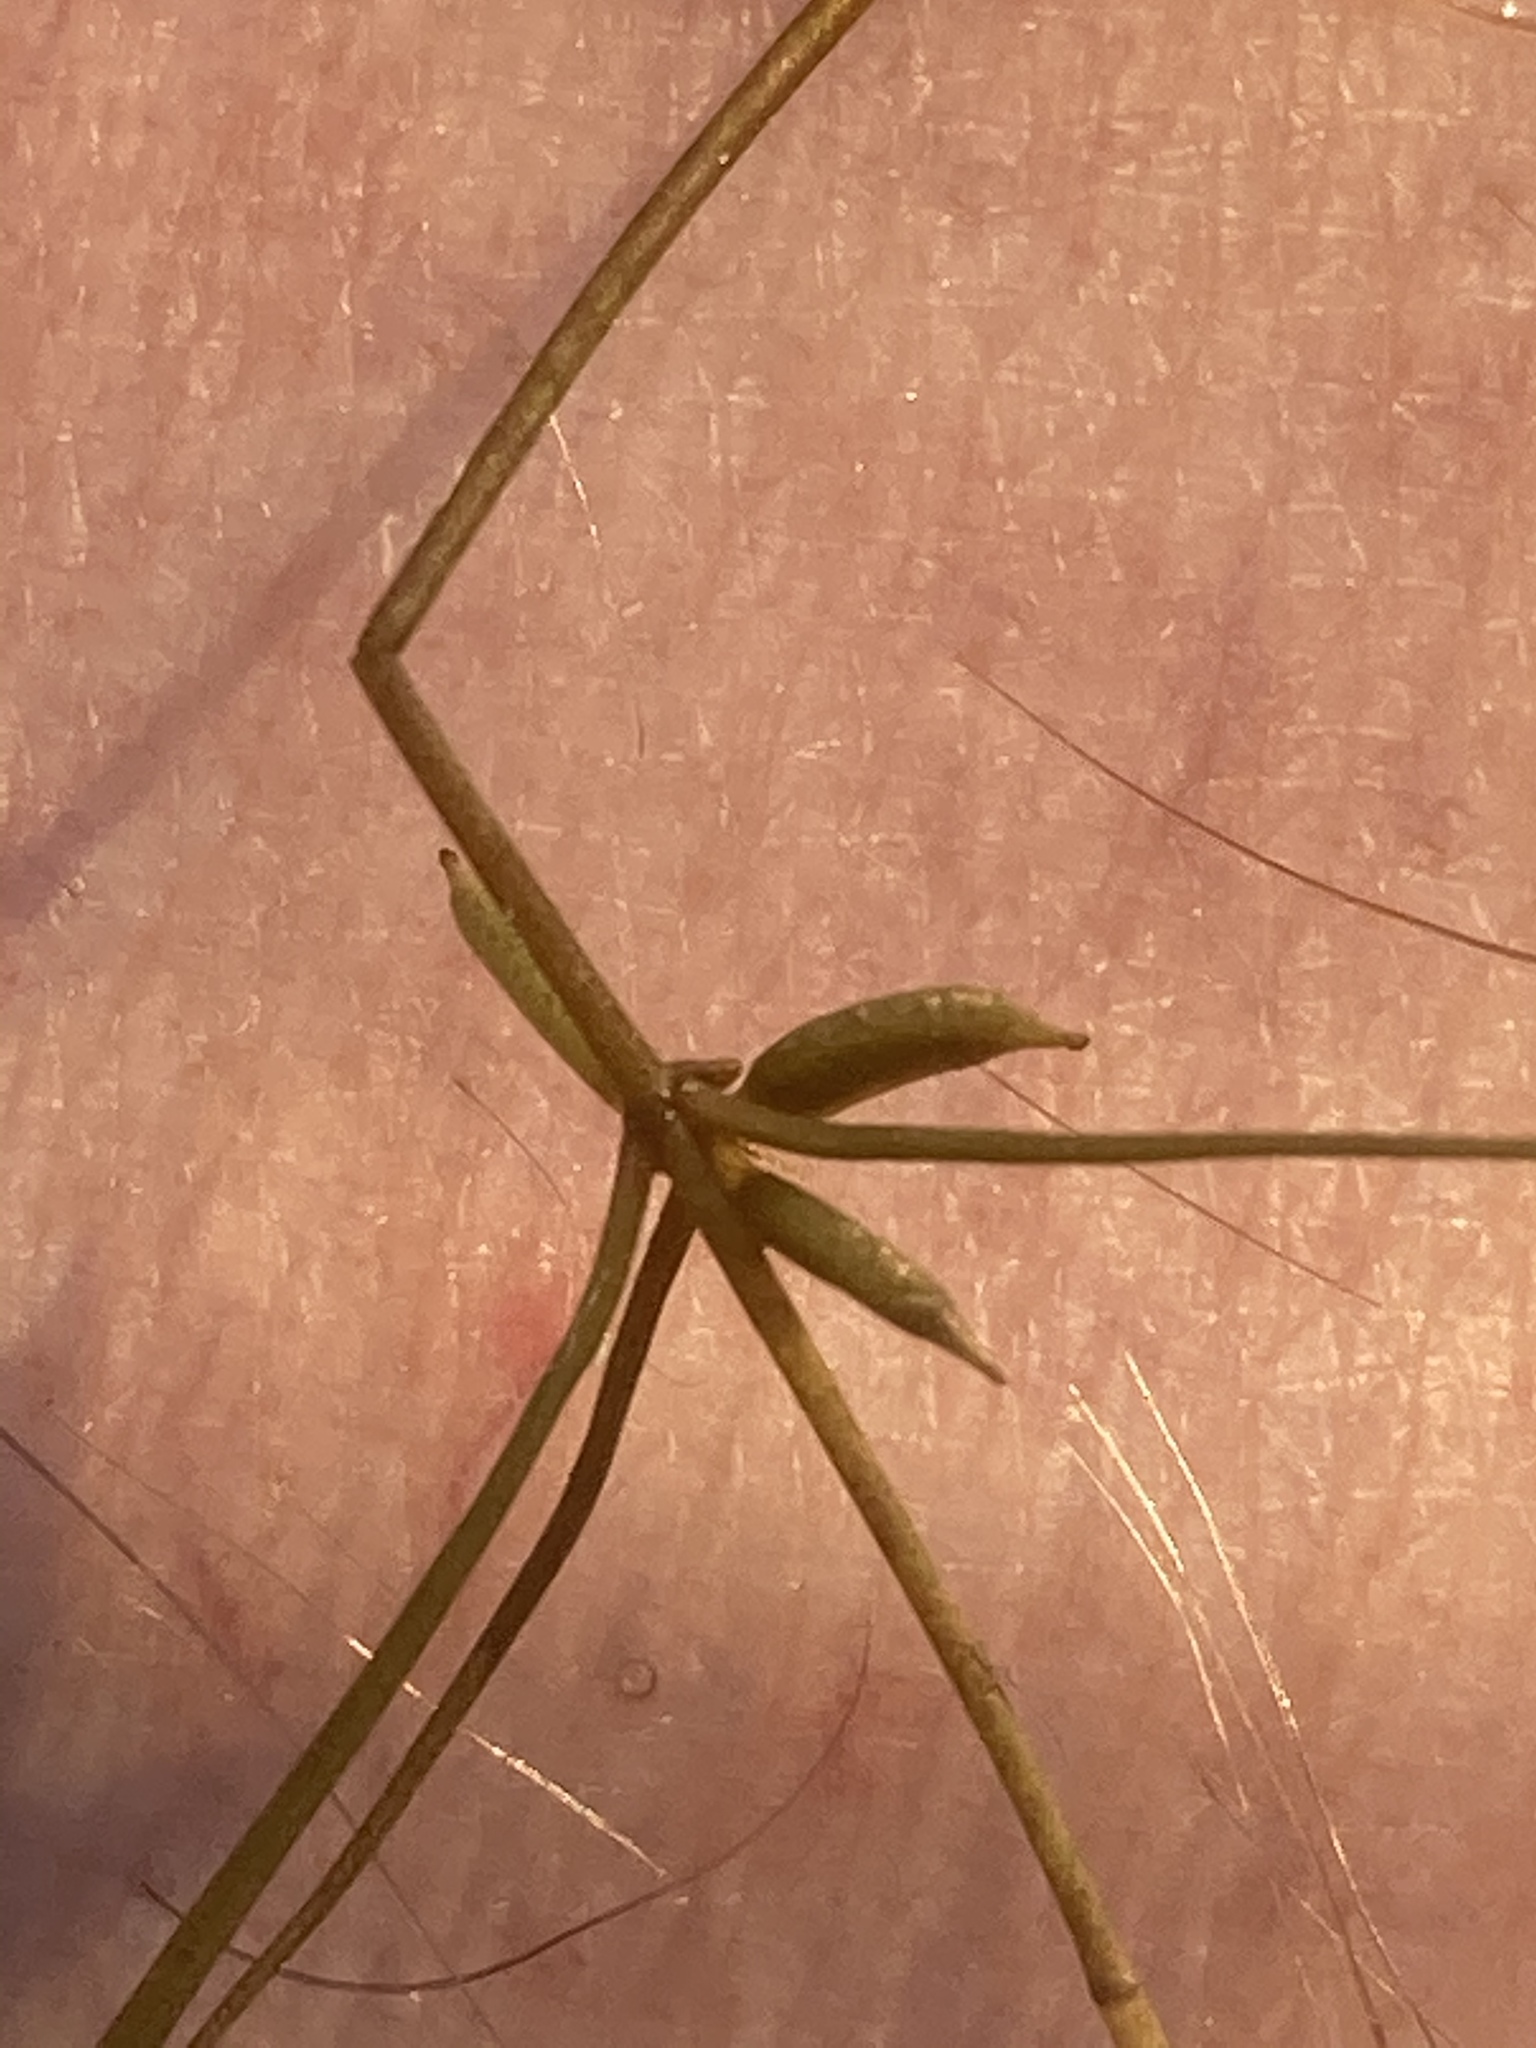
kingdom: Plantae
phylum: Tracheophyta
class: Liliopsida
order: Alismatales
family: Potamogetonaceae
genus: Zannichellia
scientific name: Zannichellia palustris
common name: Horned pondweed
